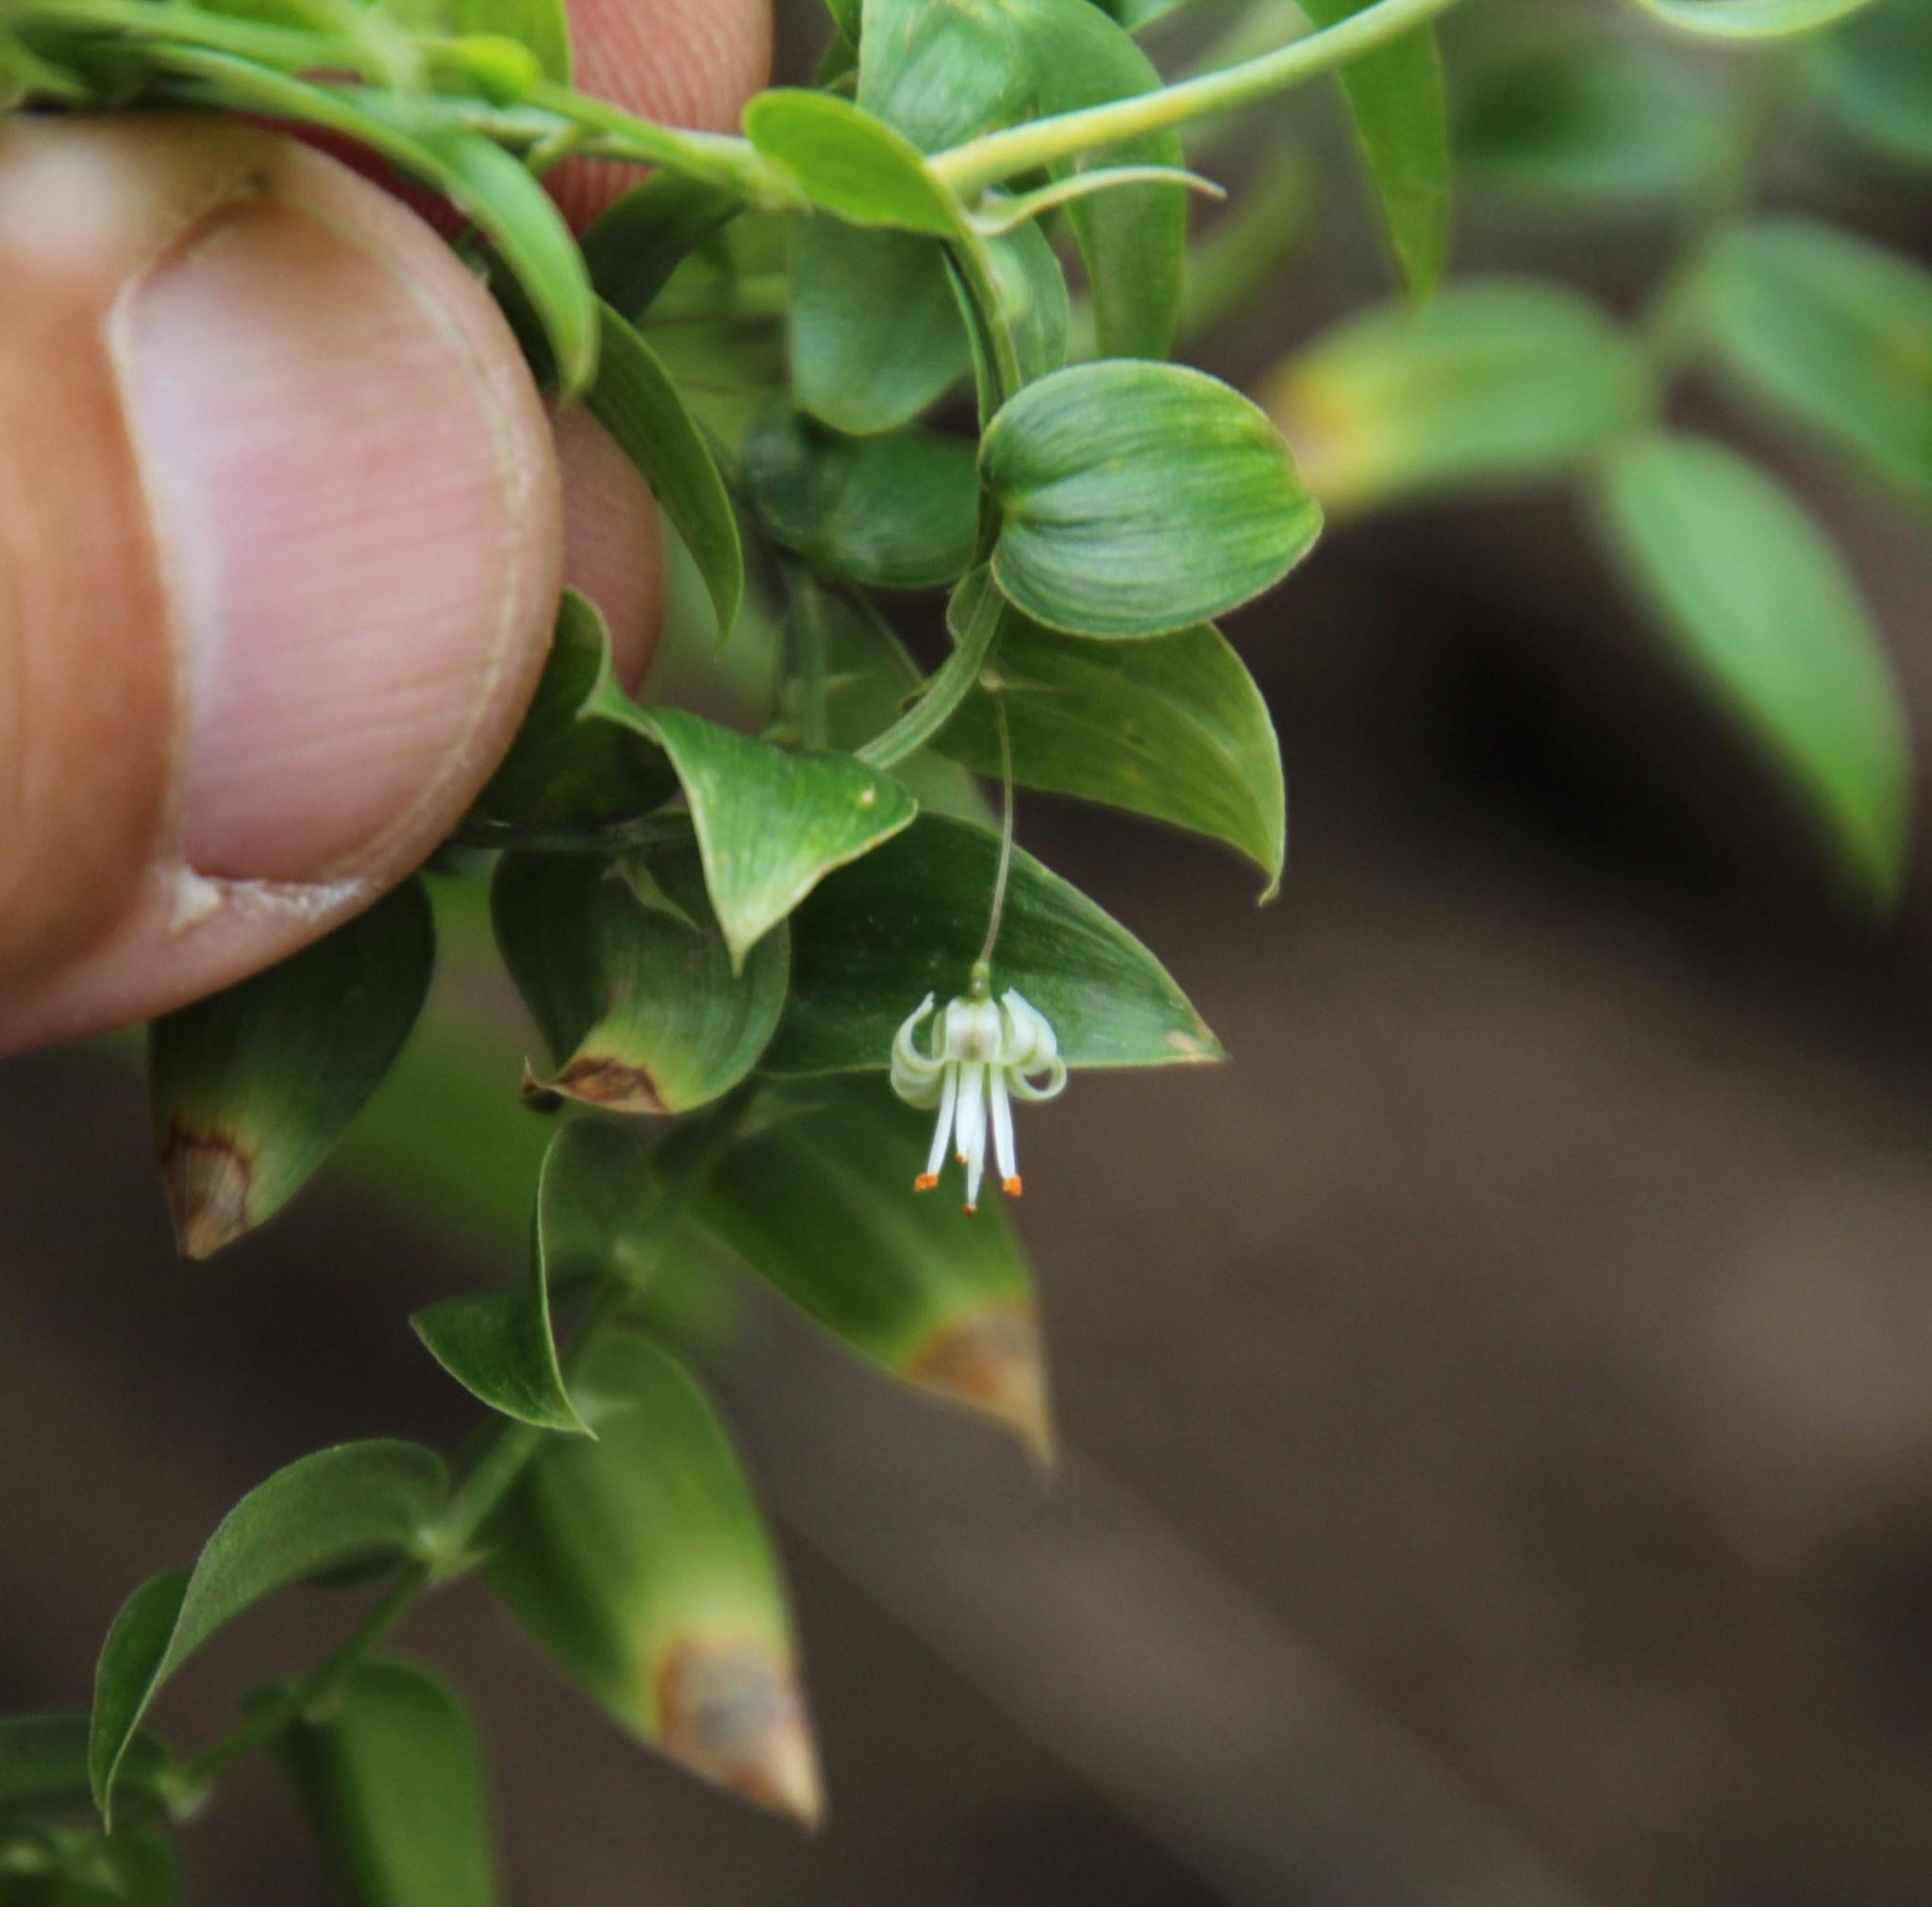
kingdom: Plantae
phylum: Tracheophyta
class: Liliopsida
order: Asparagales
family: Asparagaceae
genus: Asparagus
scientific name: Asparagus asparagoides
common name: African asparagus fern
